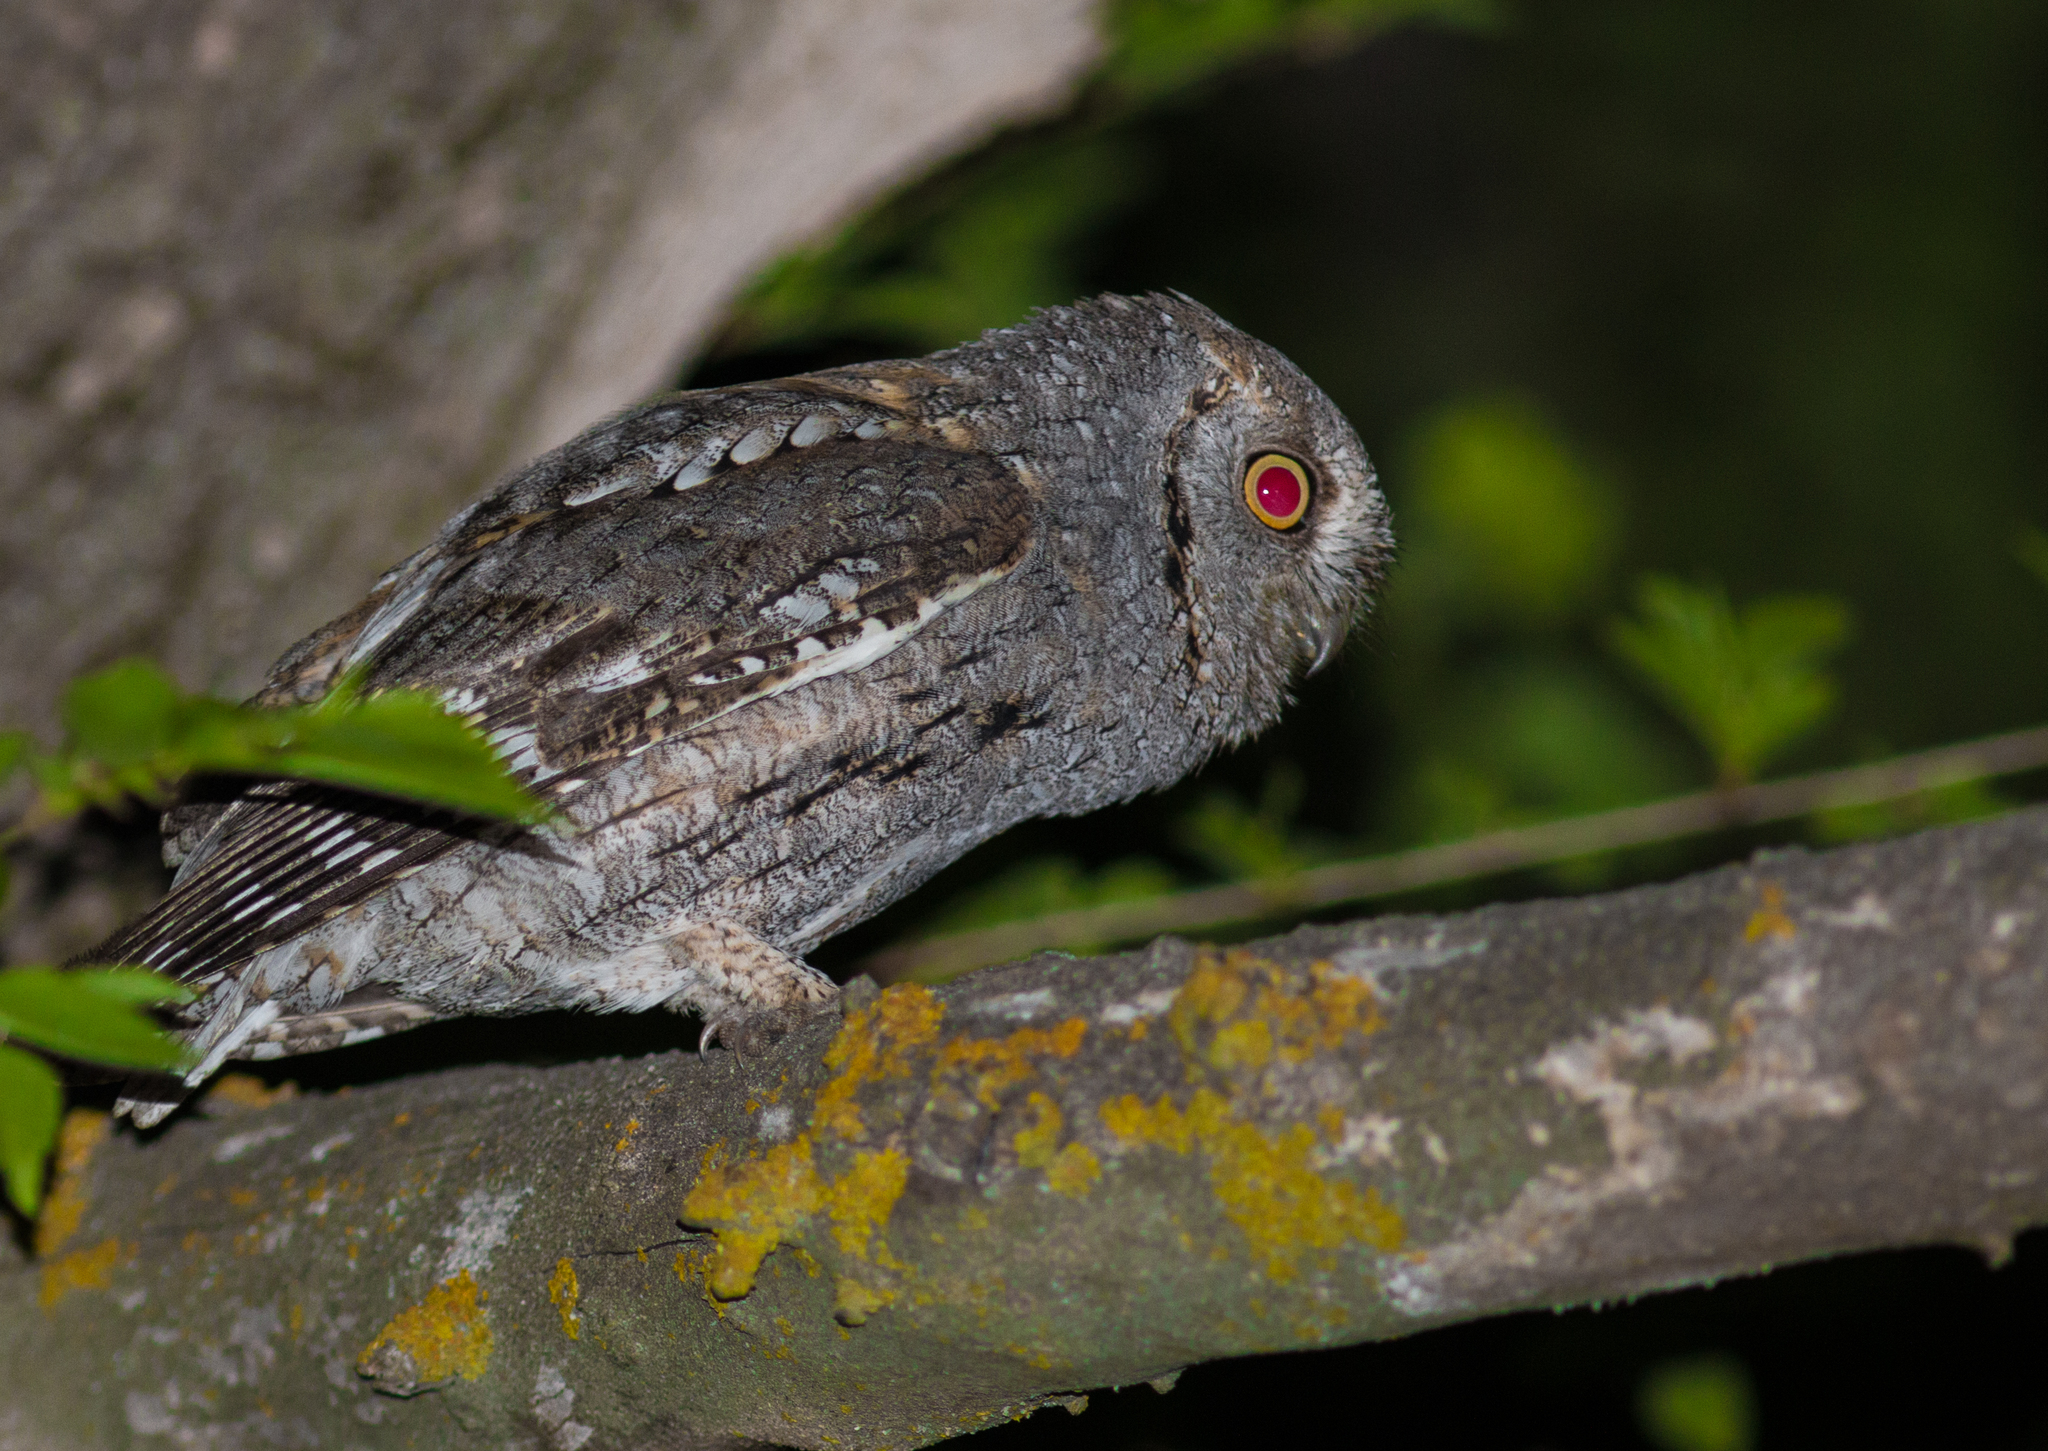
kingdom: Animalia
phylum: Chordata
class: Aves
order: Strigiformes
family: Strigidae
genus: Otus
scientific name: Otus scops
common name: Eurasian scops owl
